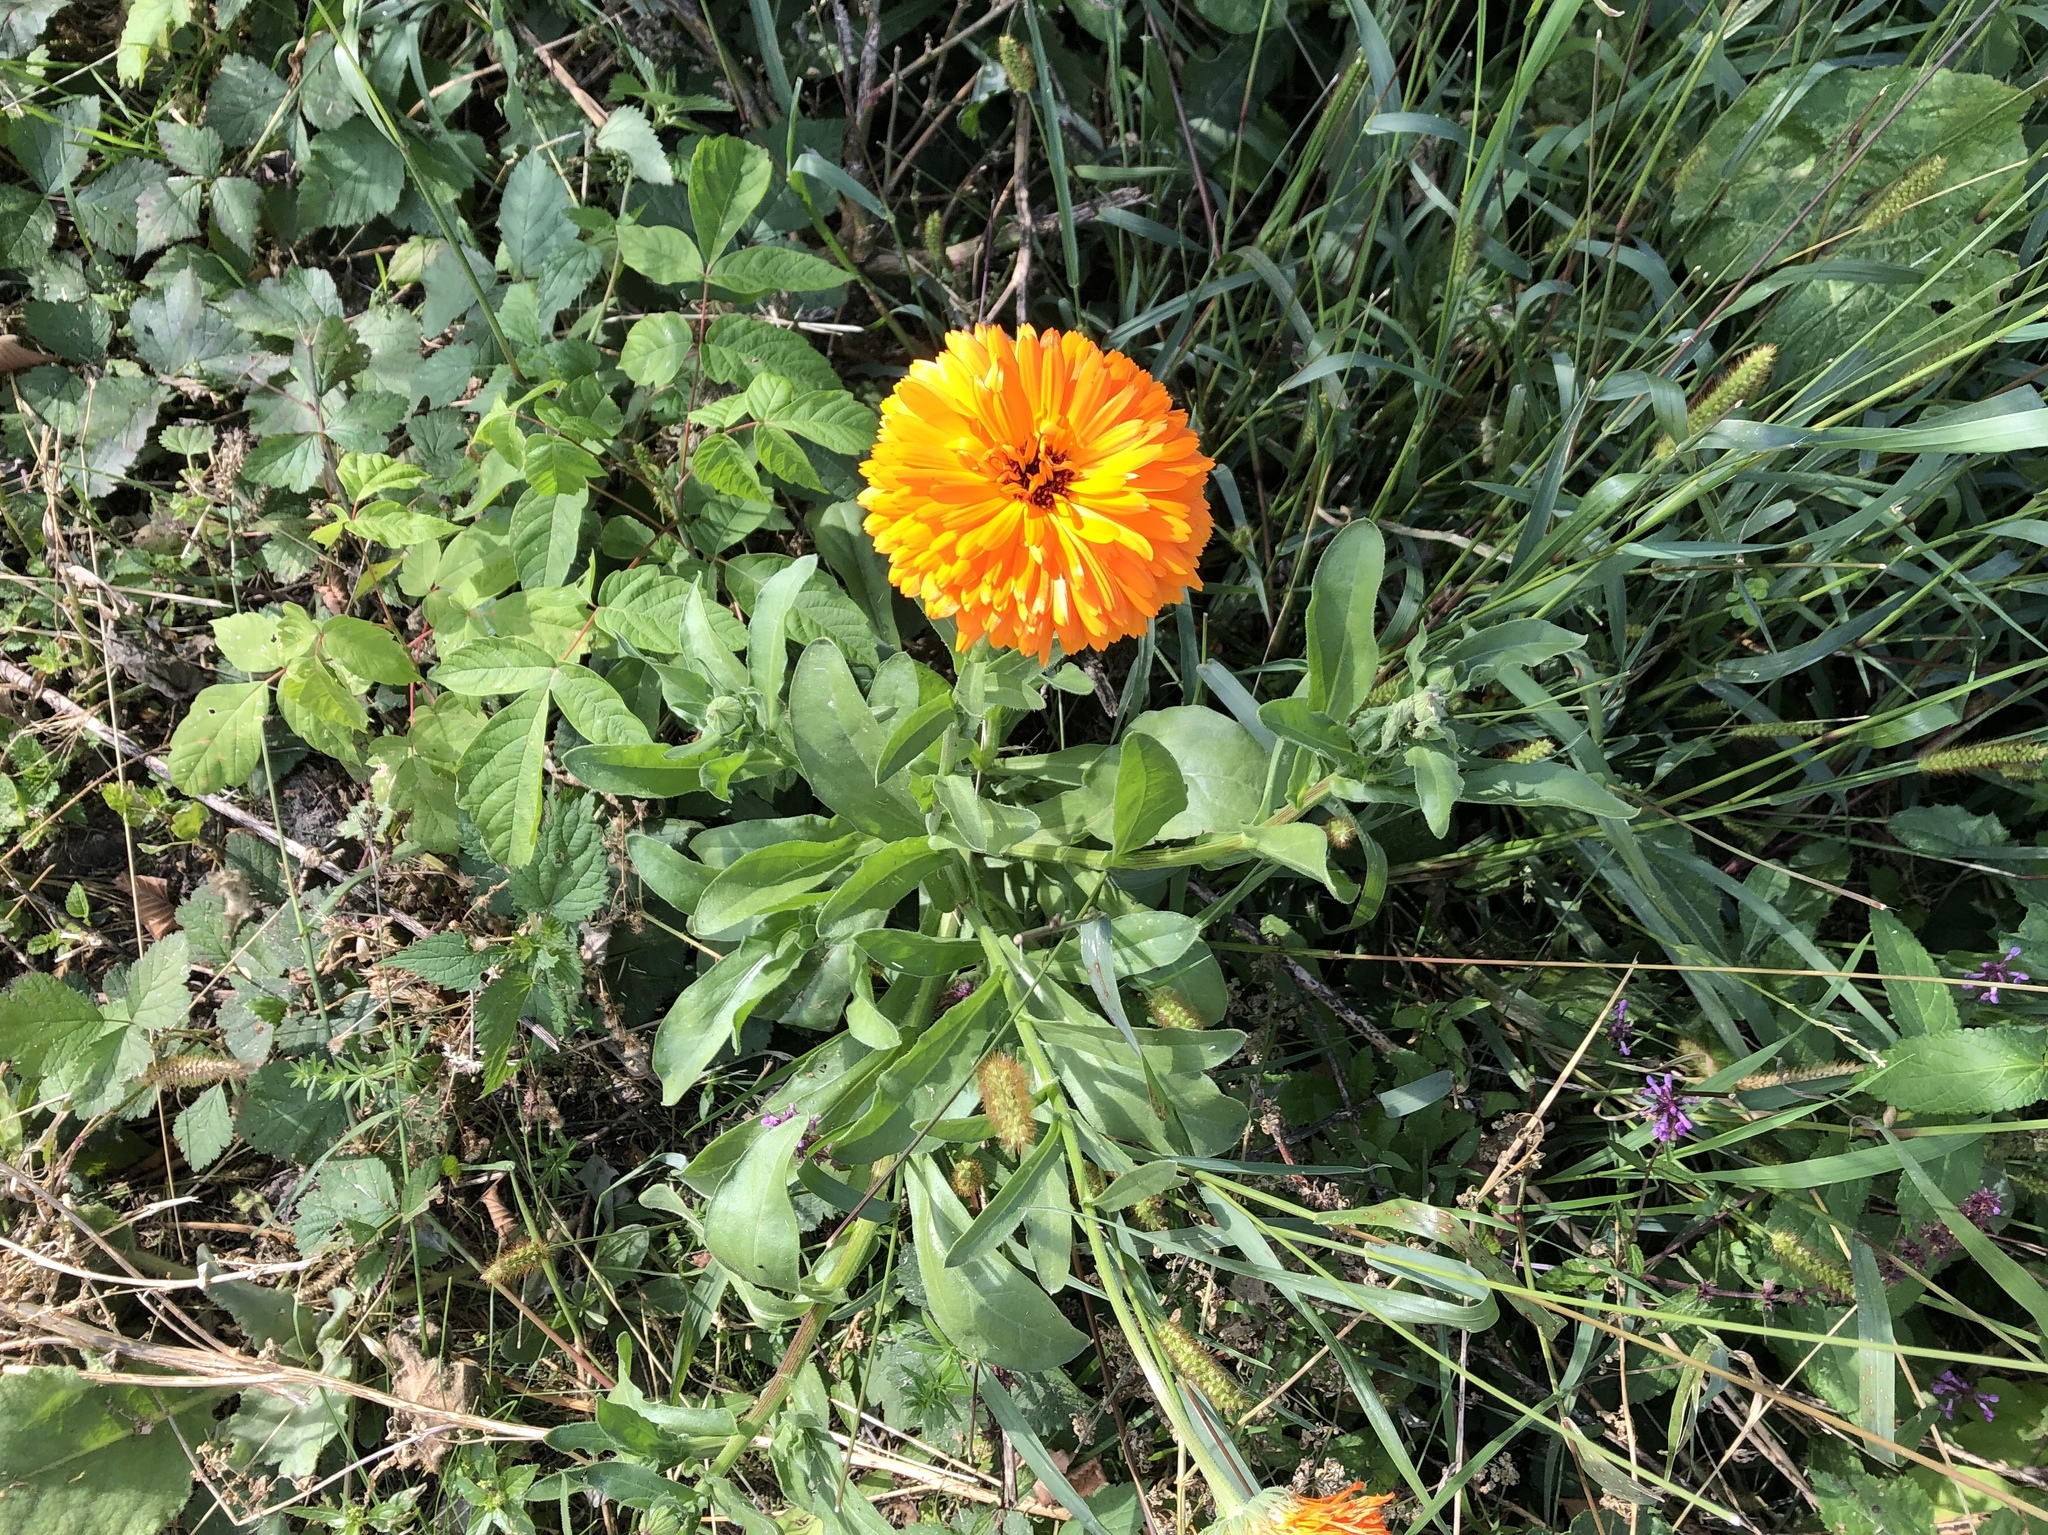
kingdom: Plantae
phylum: Tracheophyta
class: Magnoliopsida
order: Asterales
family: Asteraceae
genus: Calendula
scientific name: Calendula officinalis
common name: Pot marigold
